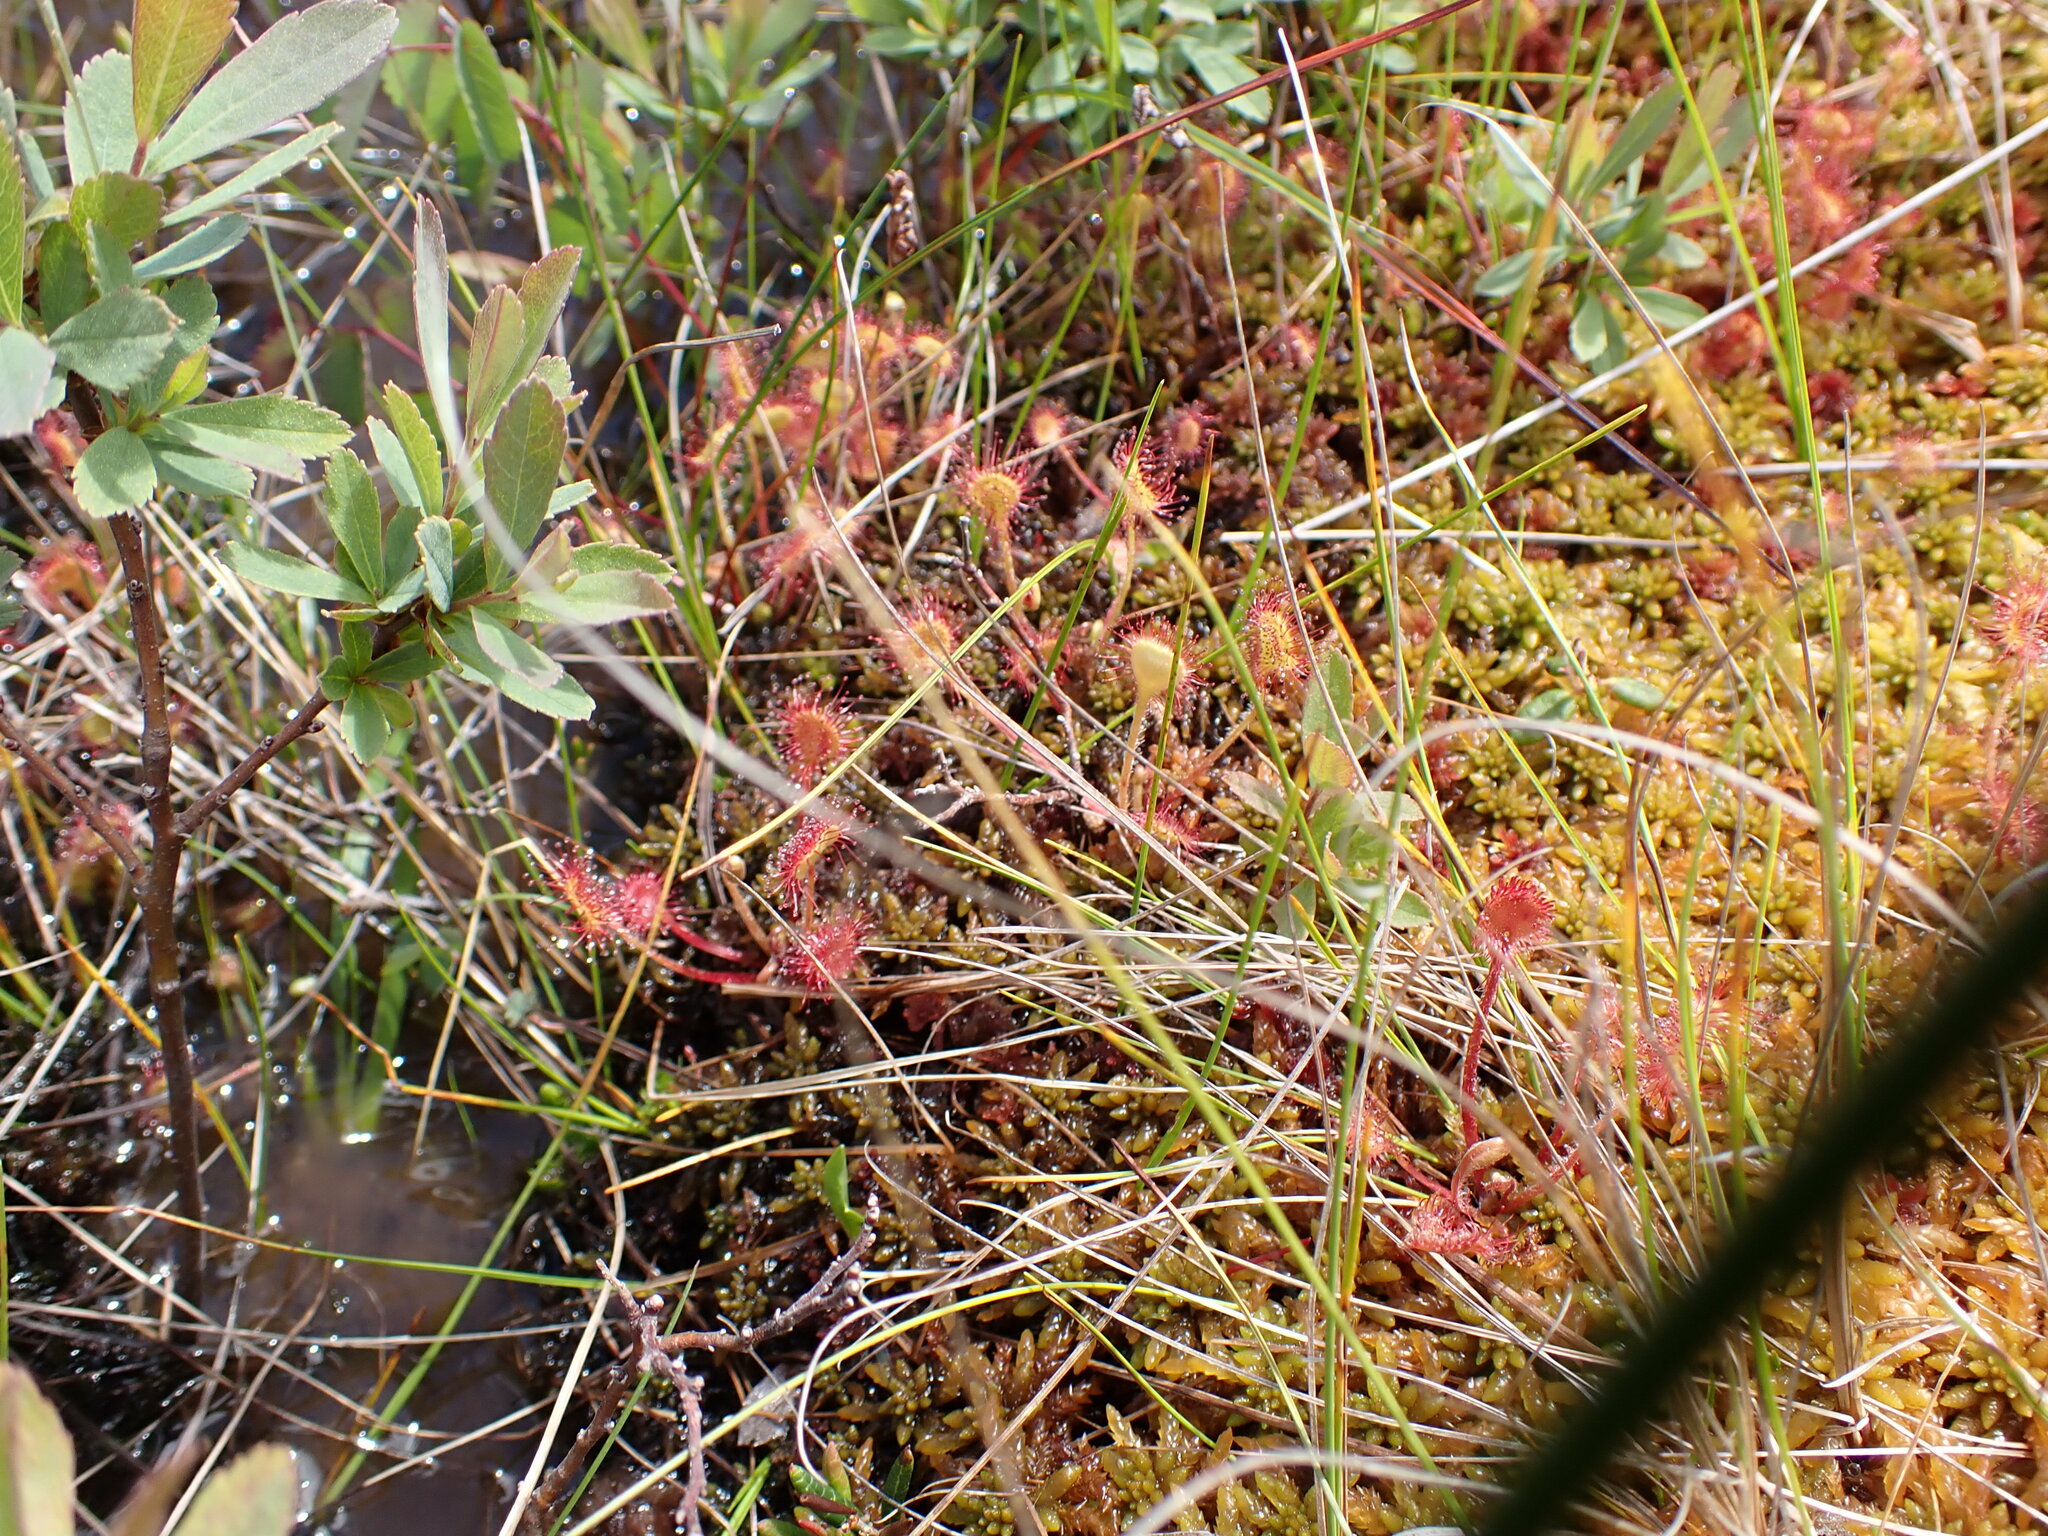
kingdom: Plantae
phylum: Tracheophyta
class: Magnoliopsida
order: Caryophyllales
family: Droseraceae
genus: Drosera
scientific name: Drosera rotundifolia
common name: Round-leaved sundew
